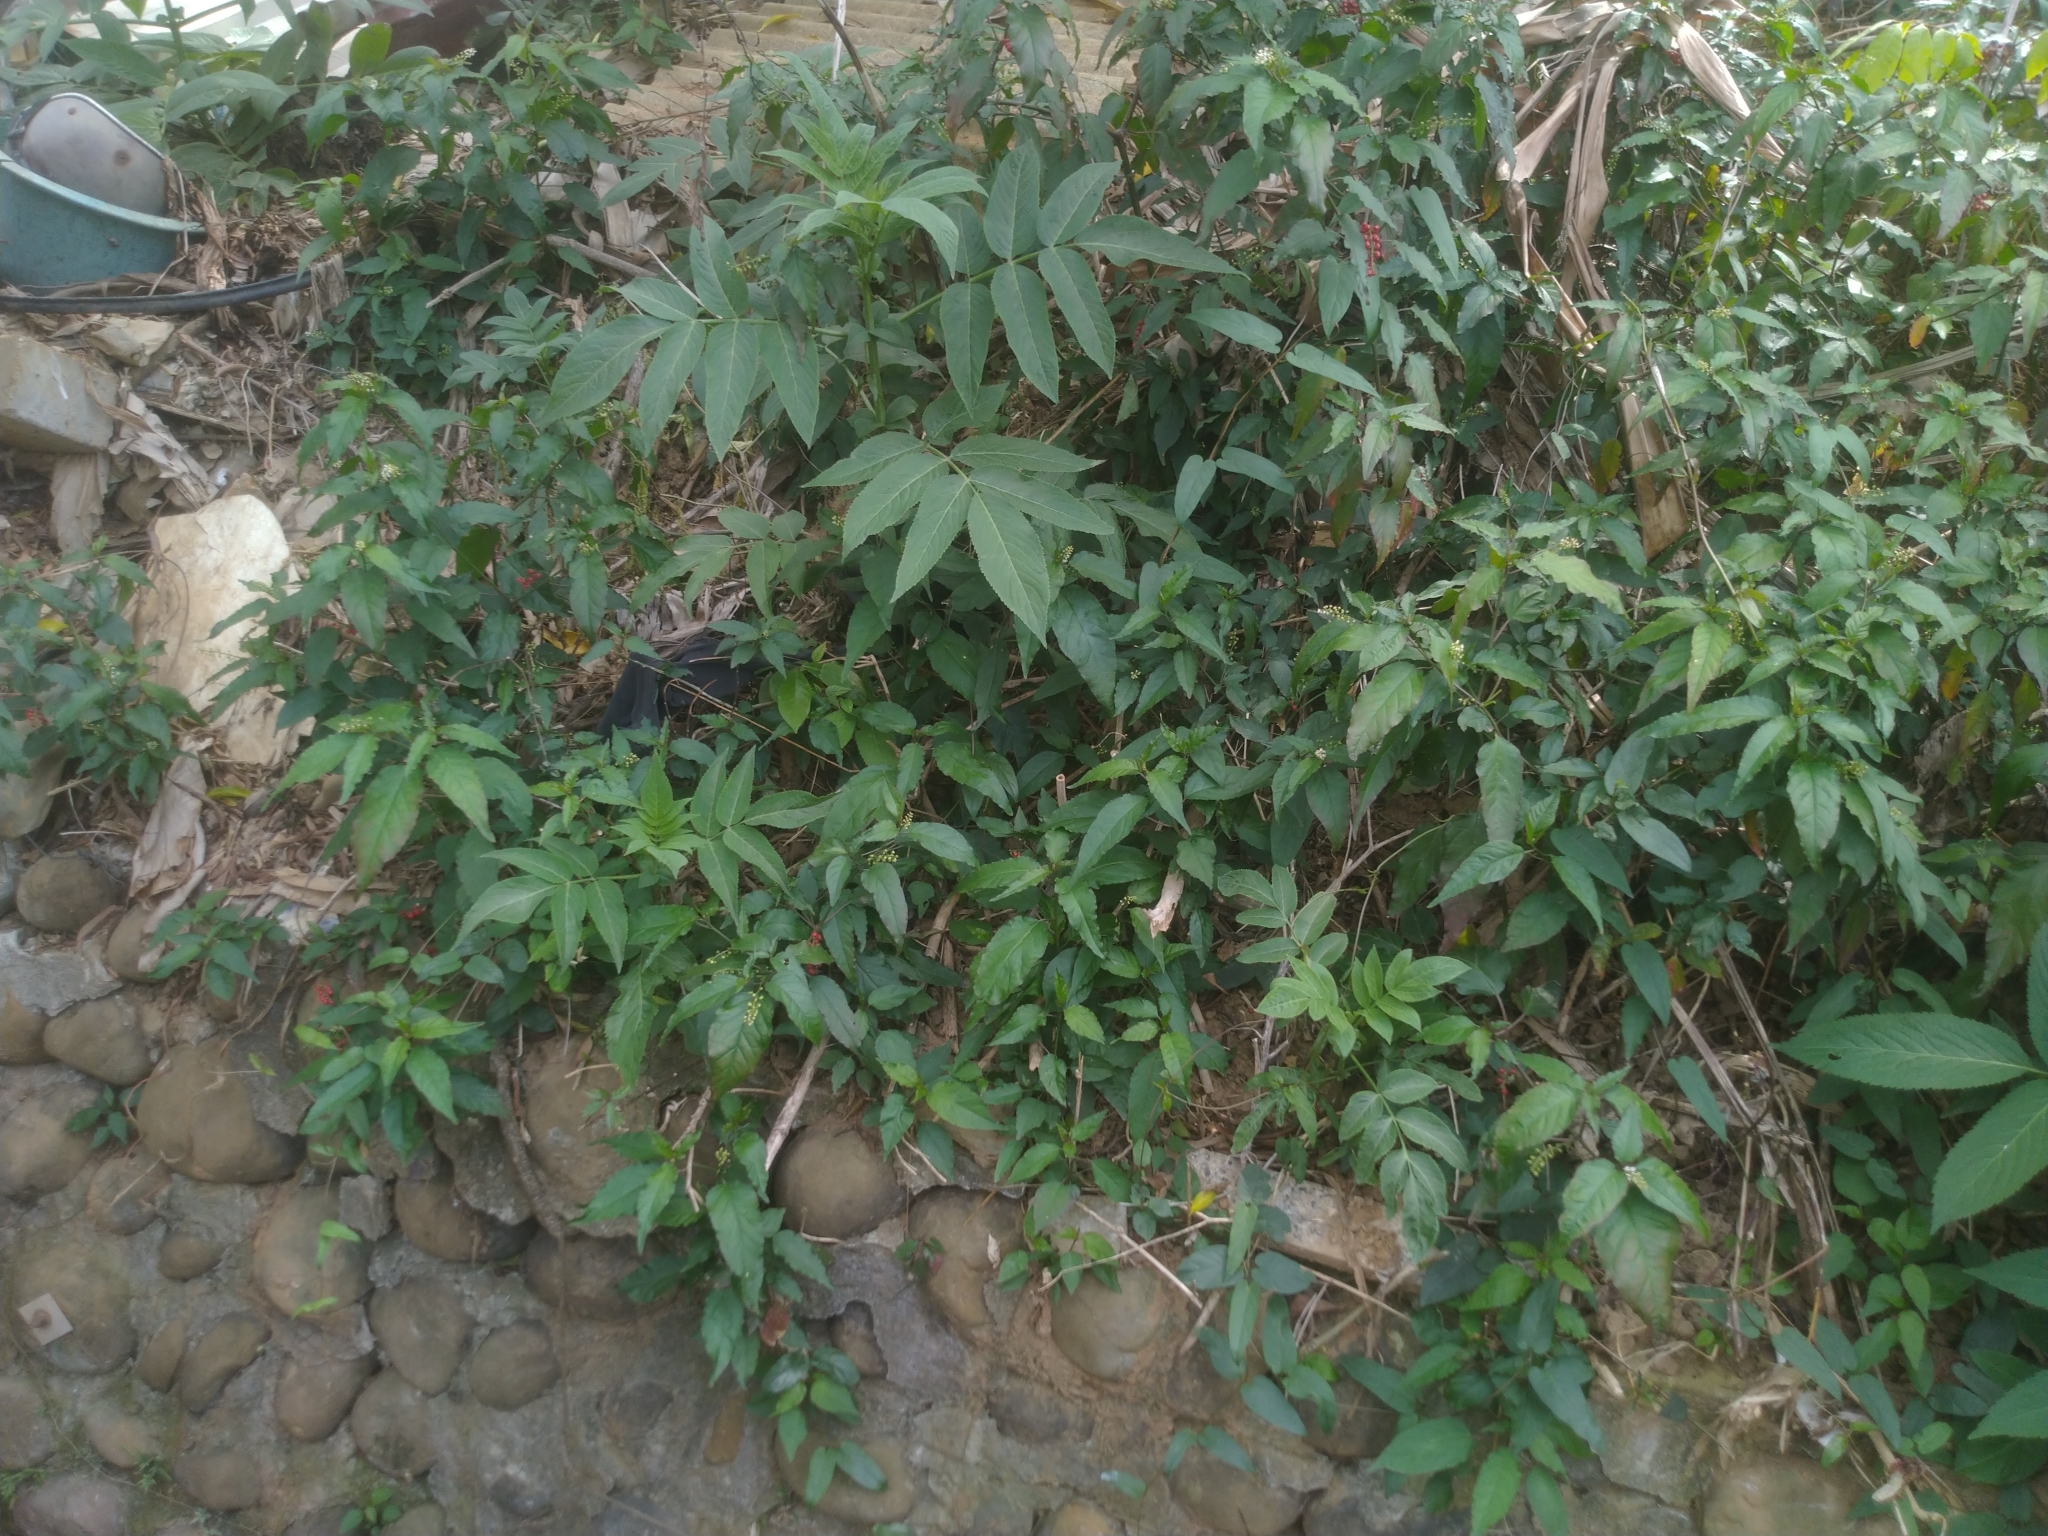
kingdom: Plantae
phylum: Tracheophyta
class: Magnoliopsida
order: Caryophyllales
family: Phytolaccaceae
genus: Rivina
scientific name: Rivina humilis
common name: Rougeplant
